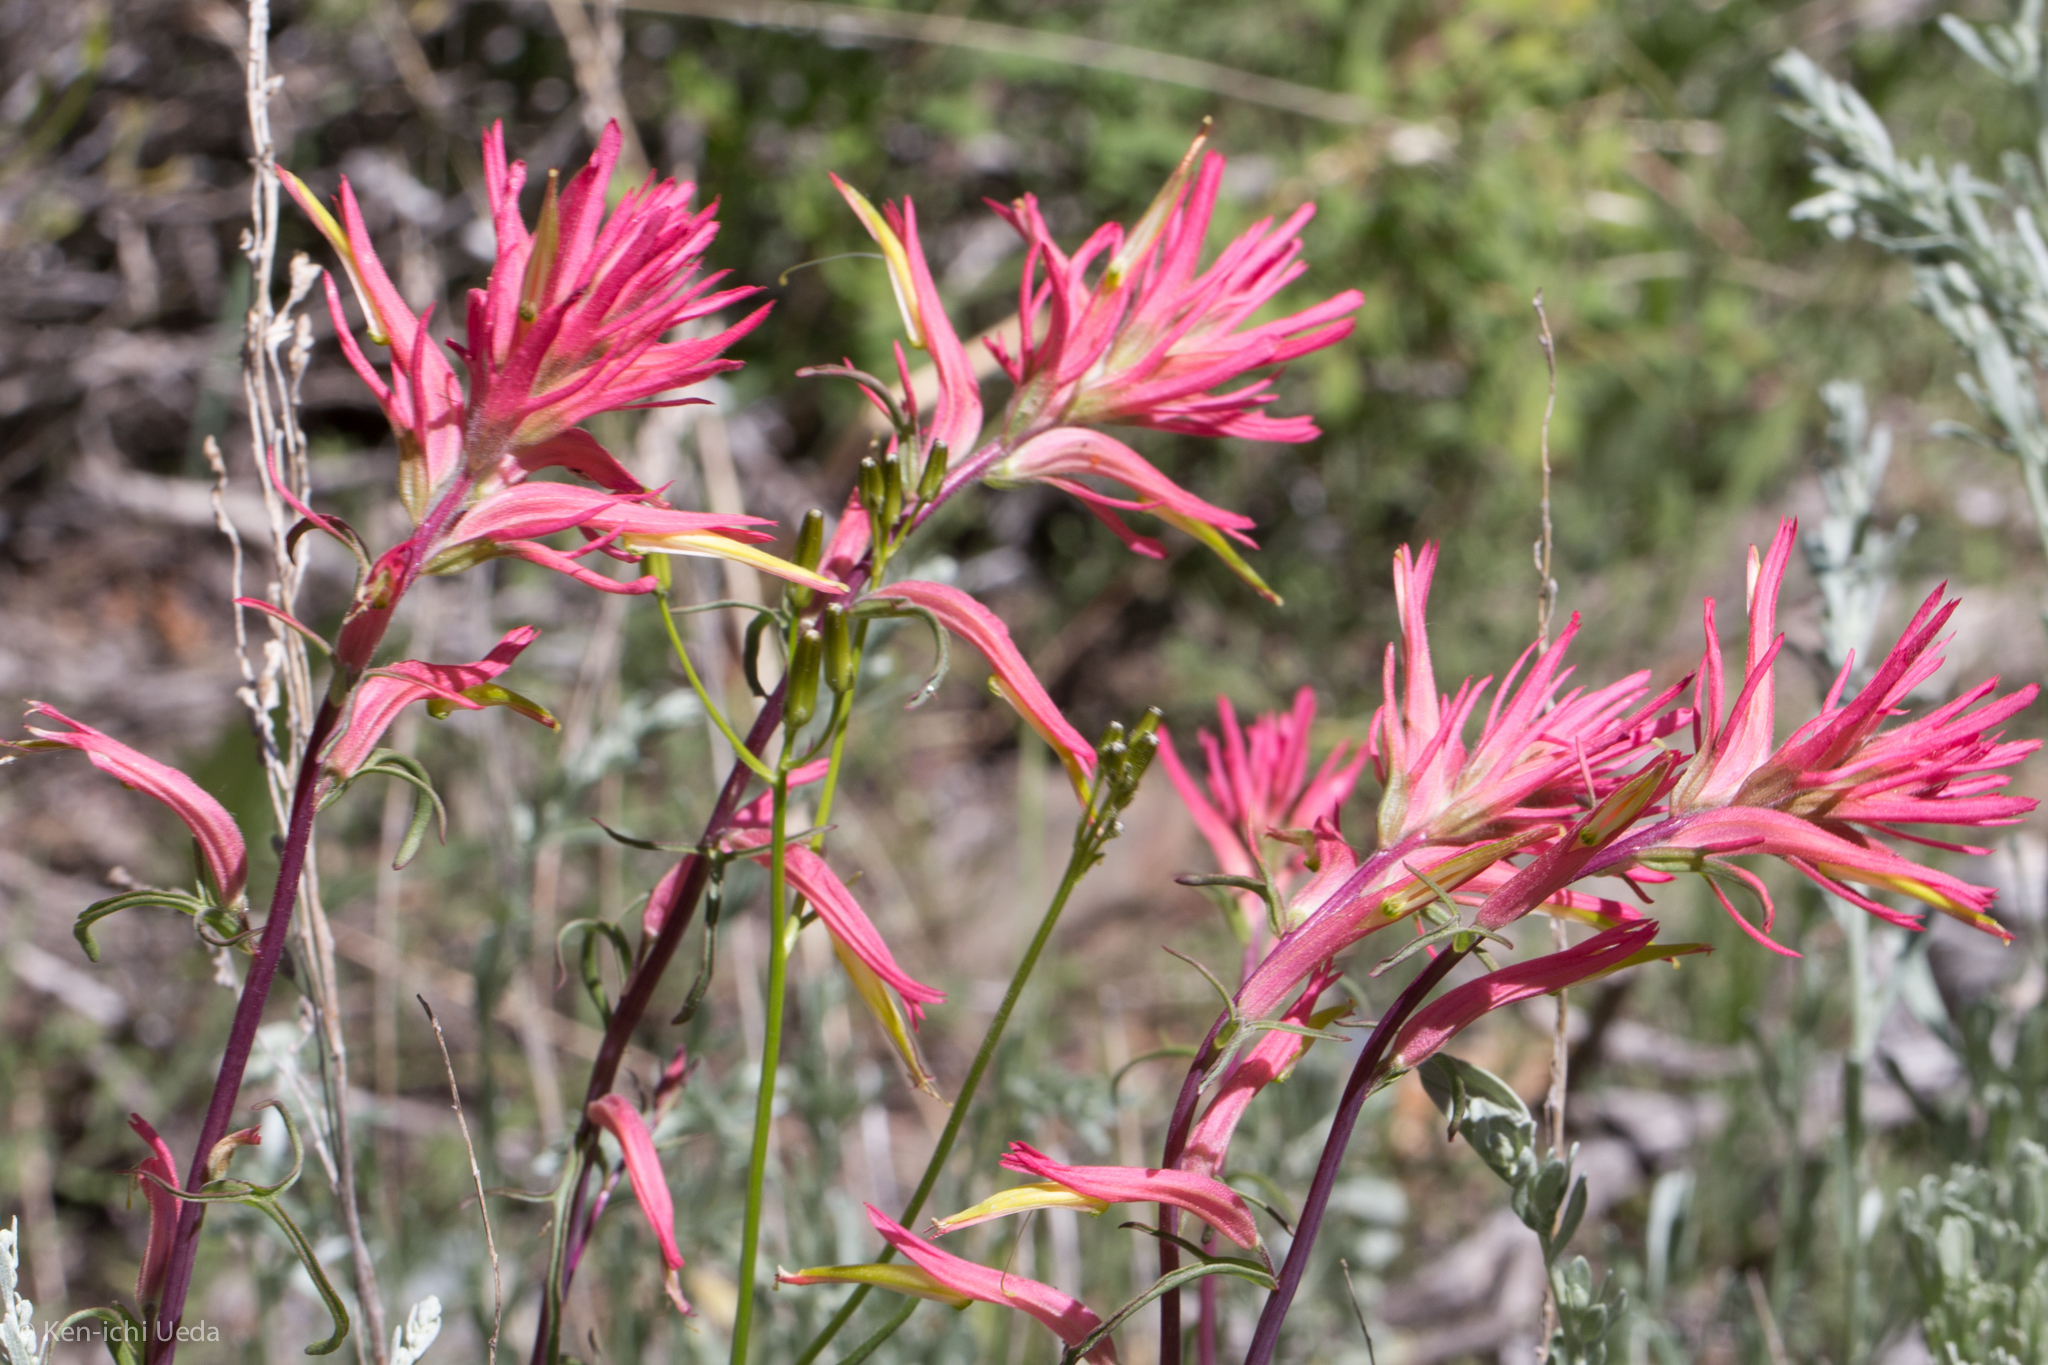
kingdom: Plantae
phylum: Tracheophyta
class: Magnoliopsida
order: Lamiales
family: Orobanchaceae
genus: Castilleja
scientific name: Castilleja linariifolia
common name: Wyoming paintbrush
